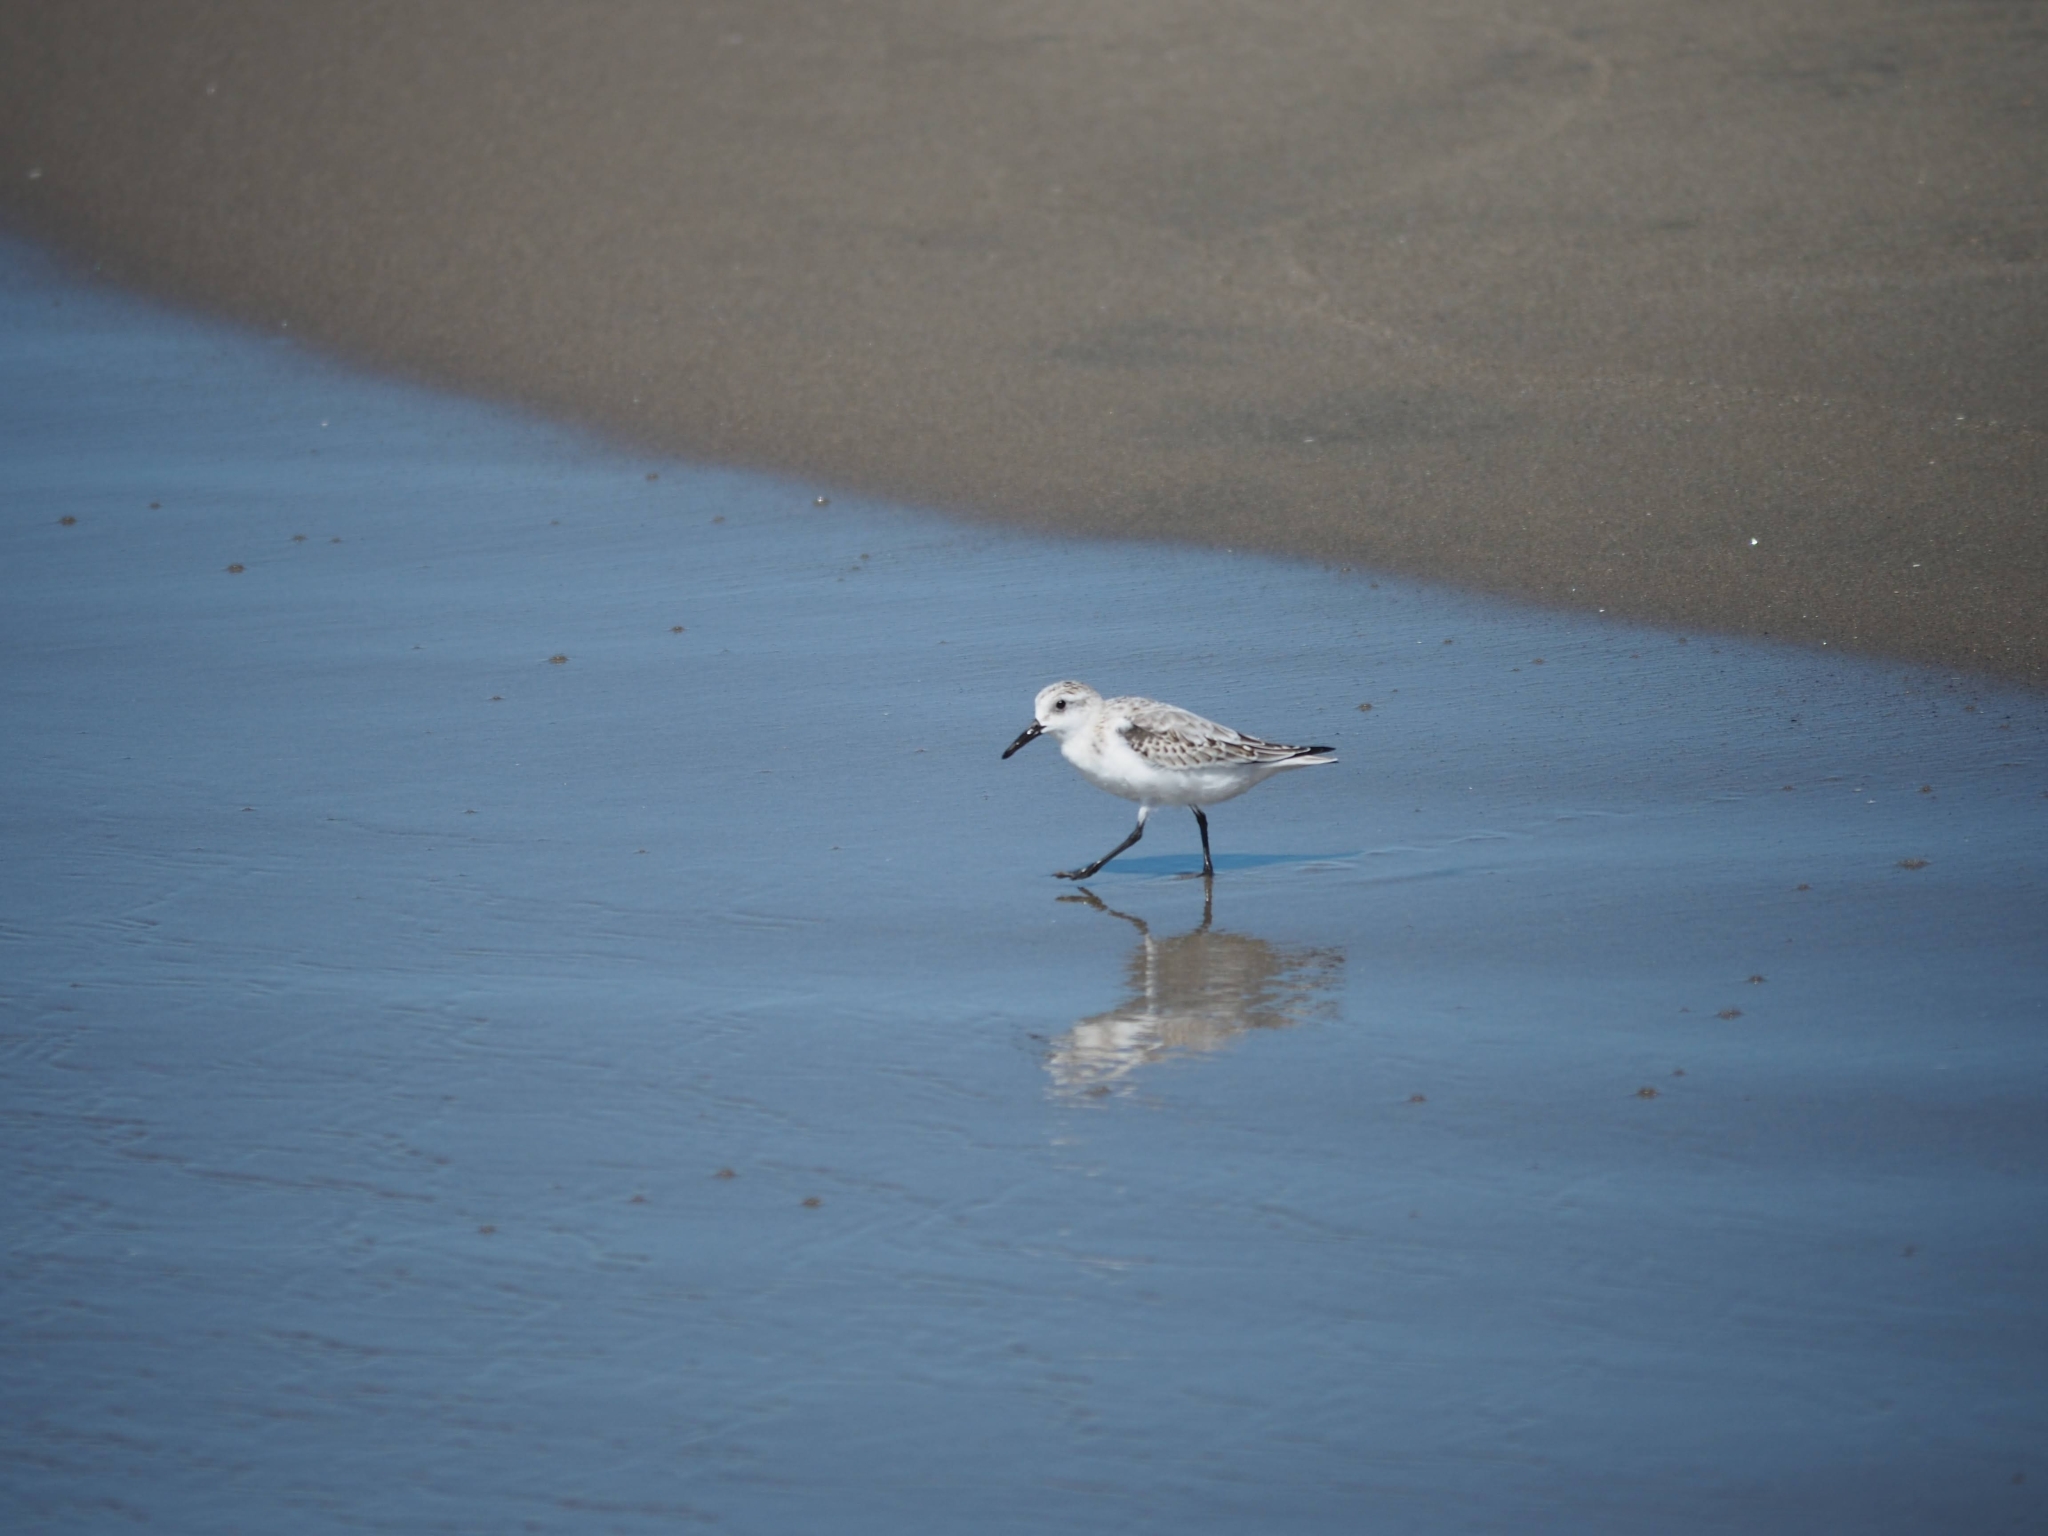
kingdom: Animalia
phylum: Chordata
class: Aves
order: Charadriiformes
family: Scolopacidae
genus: Calidris
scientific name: Calidris alba
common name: Sanderling
